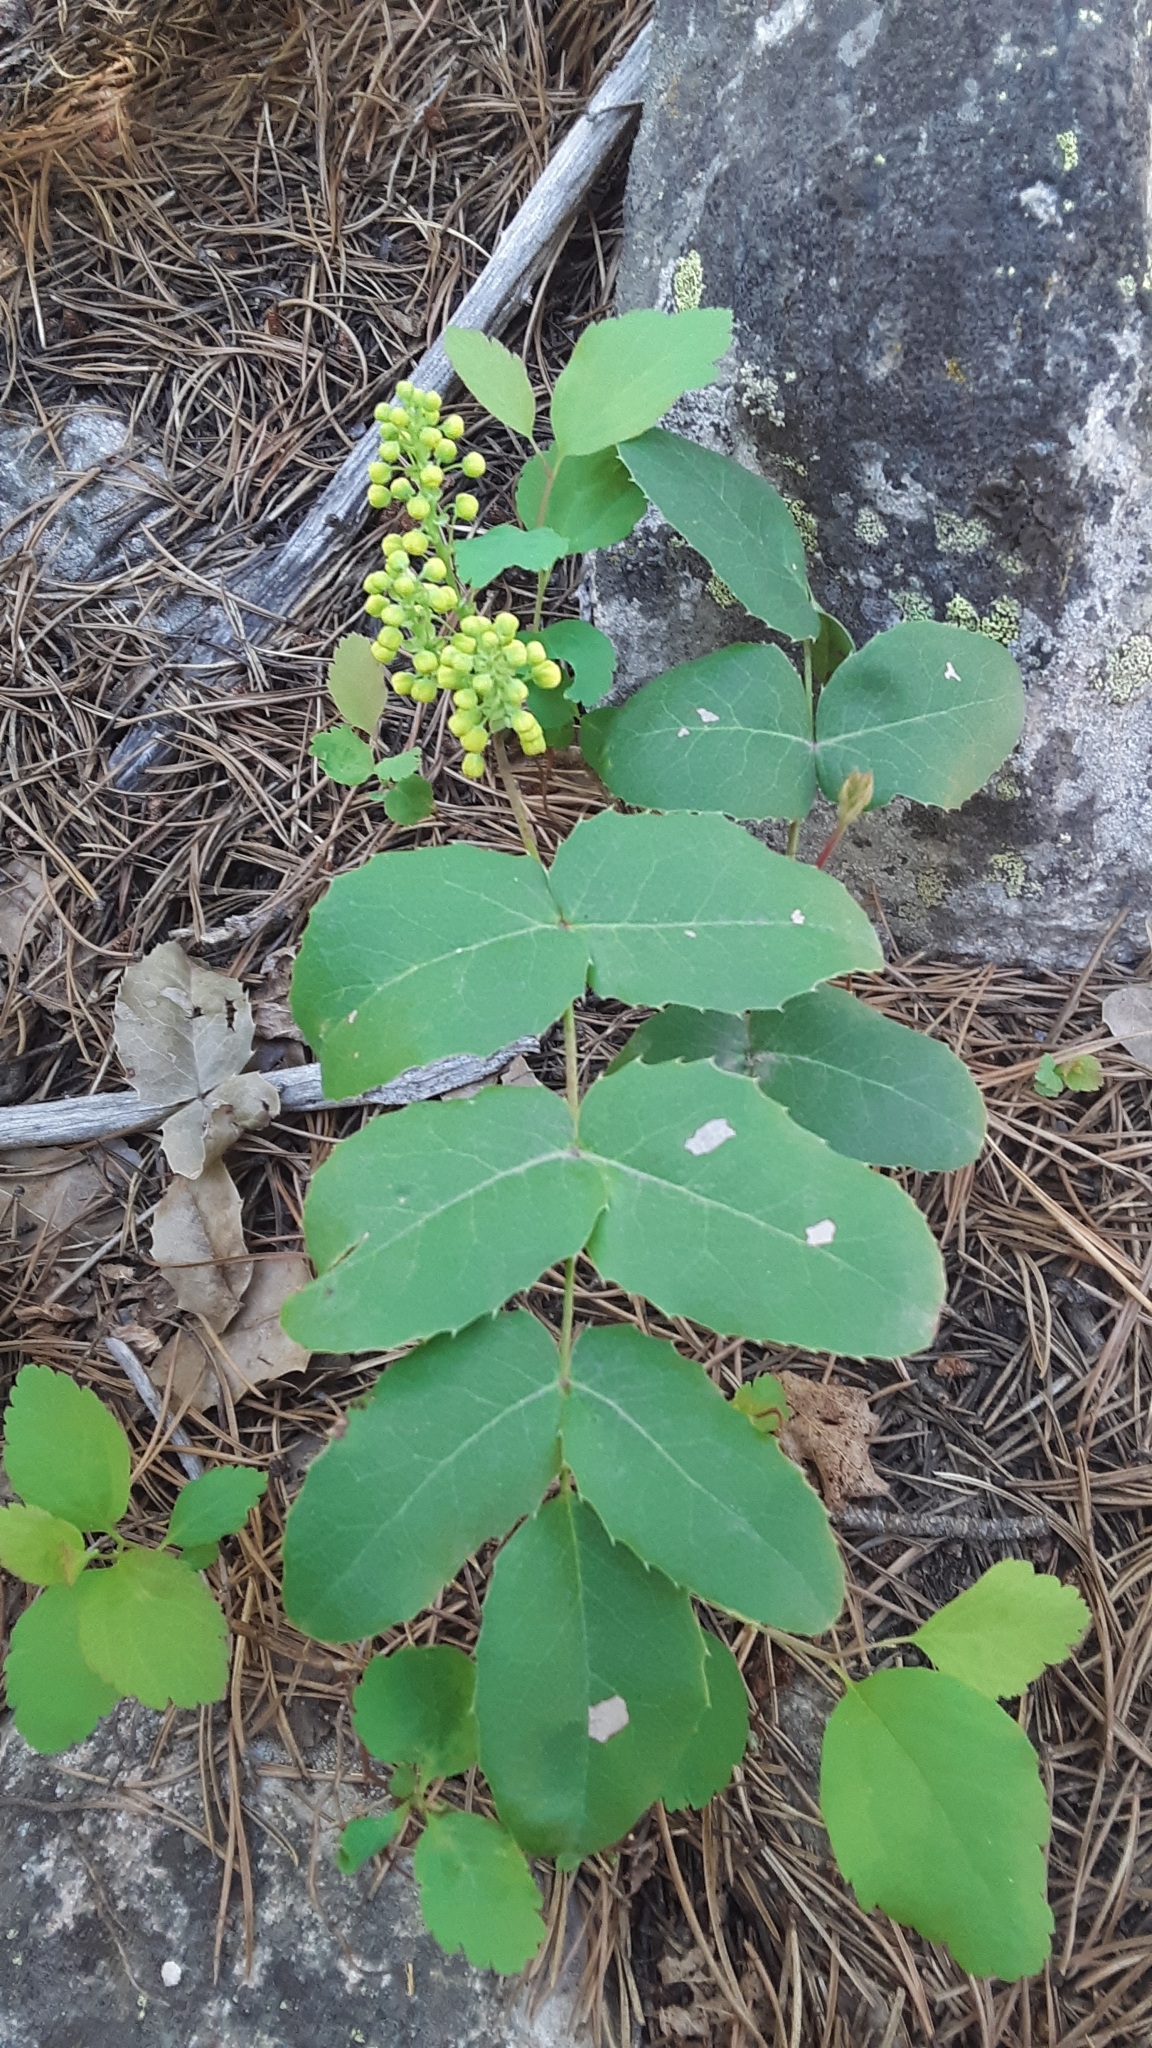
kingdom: Plantae
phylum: Tracheophyta
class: Magnoliopsida
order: Ranunculales
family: Berberidaceae
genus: Mahonia
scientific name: Mahonia repens
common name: Creeping oregon-grape
